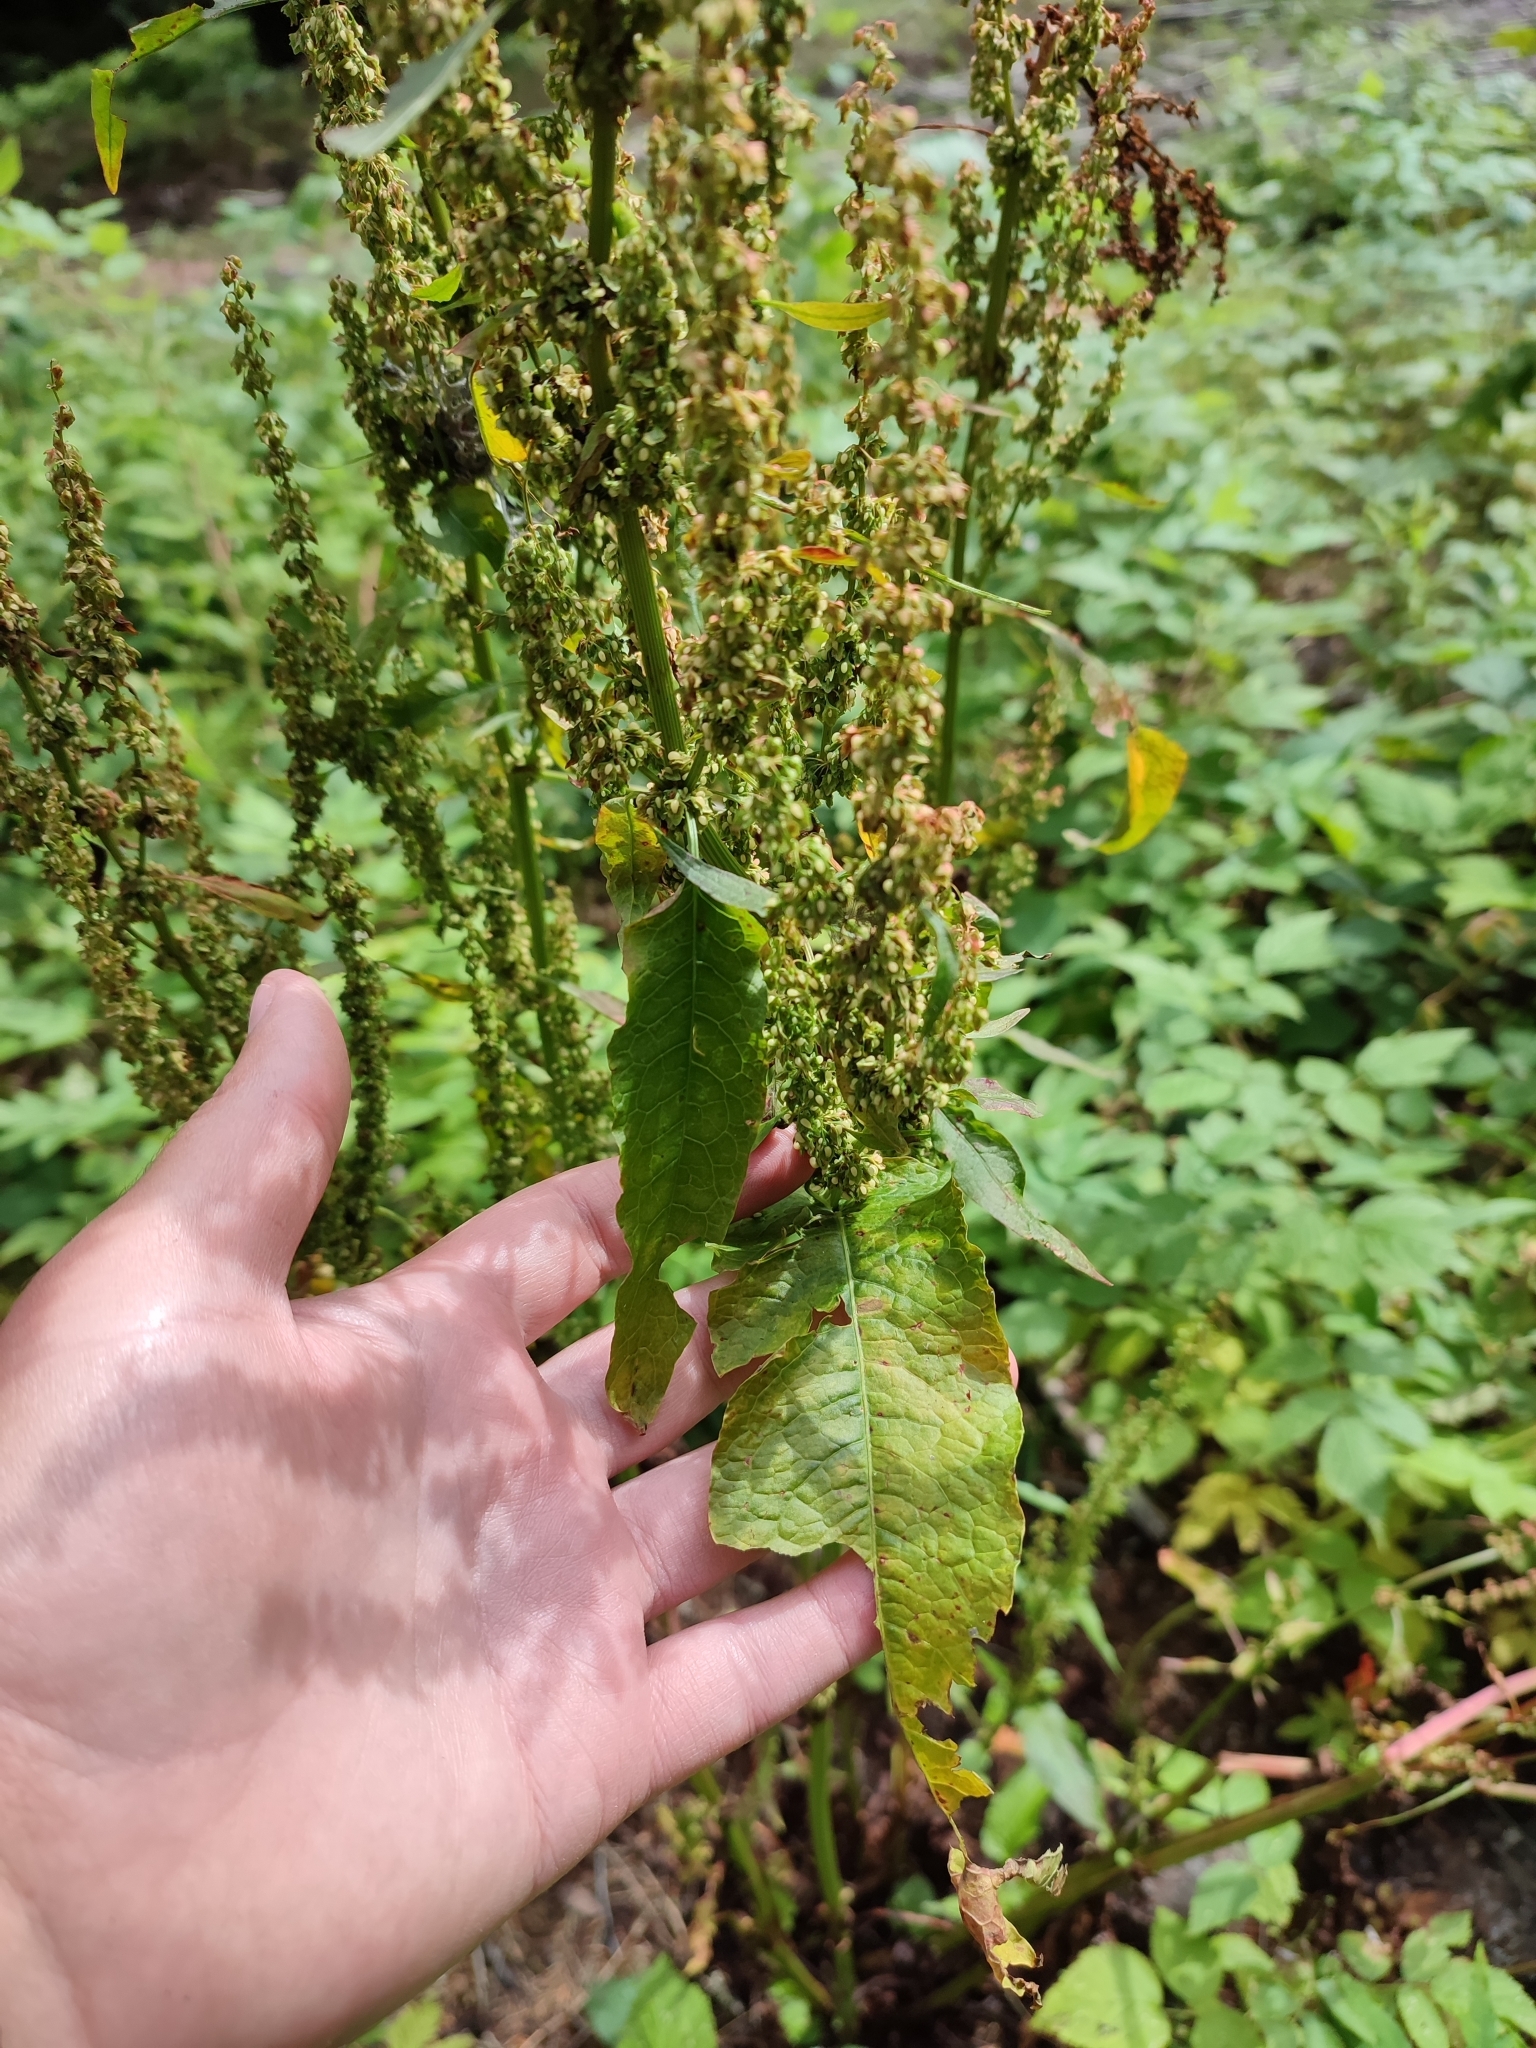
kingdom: Plantae
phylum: Tracheophyta
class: Magnoliopsida
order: Caryophyllales
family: Polygonaceae
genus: Rumex
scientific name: Rumex confertus
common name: Russian dock
